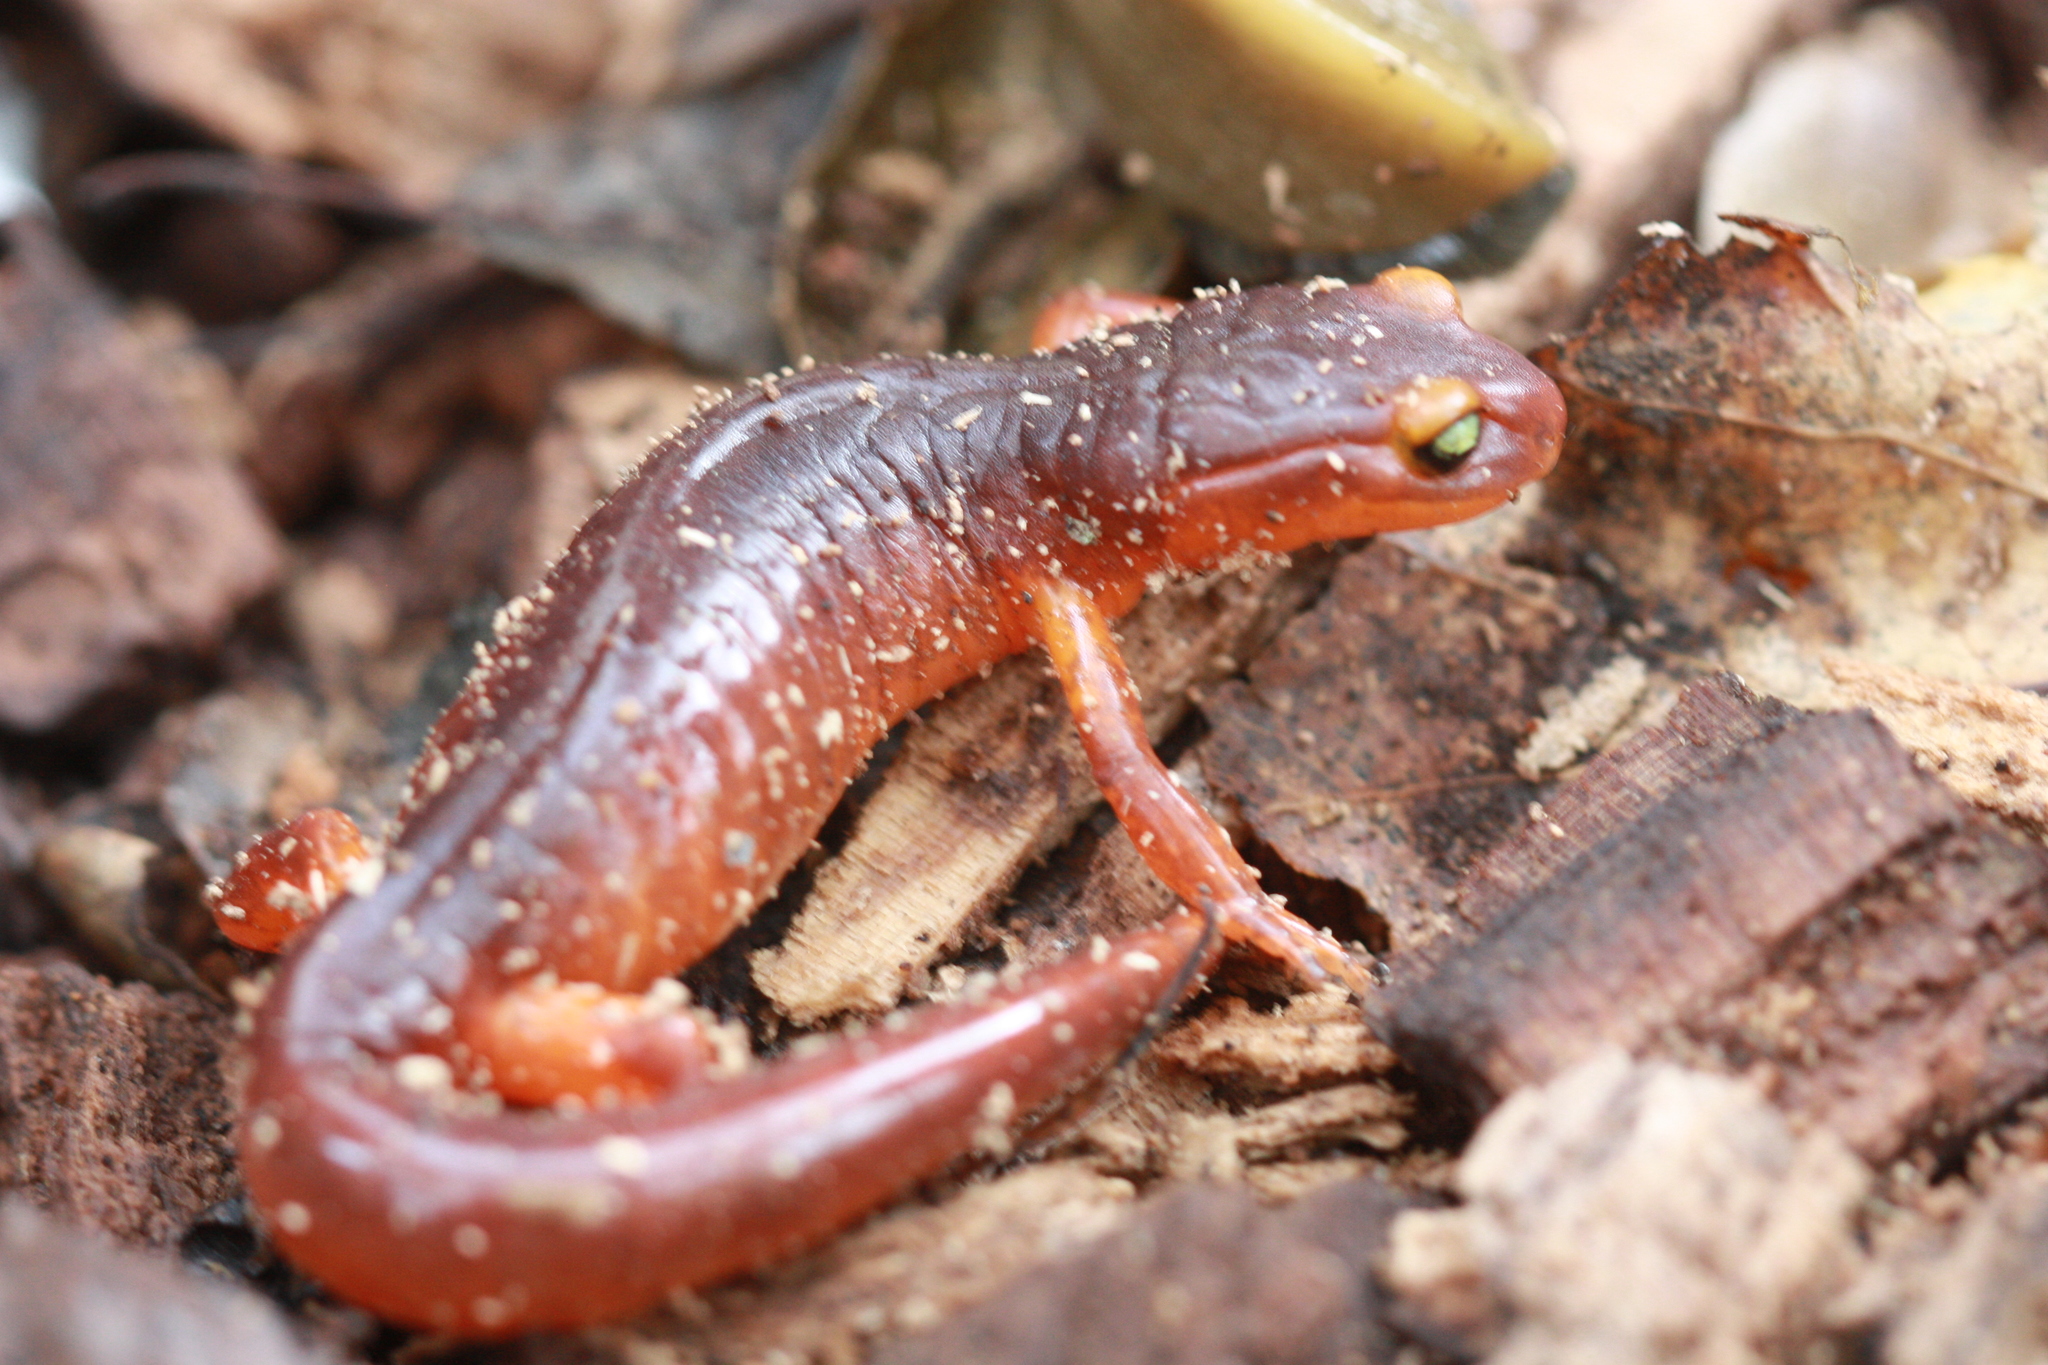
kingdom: Animalia
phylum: Chordata
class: Amphibia
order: Caudata
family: Plethodontidae
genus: Ensatina
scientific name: Ensatina eschscholtzii
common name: Ensatina
